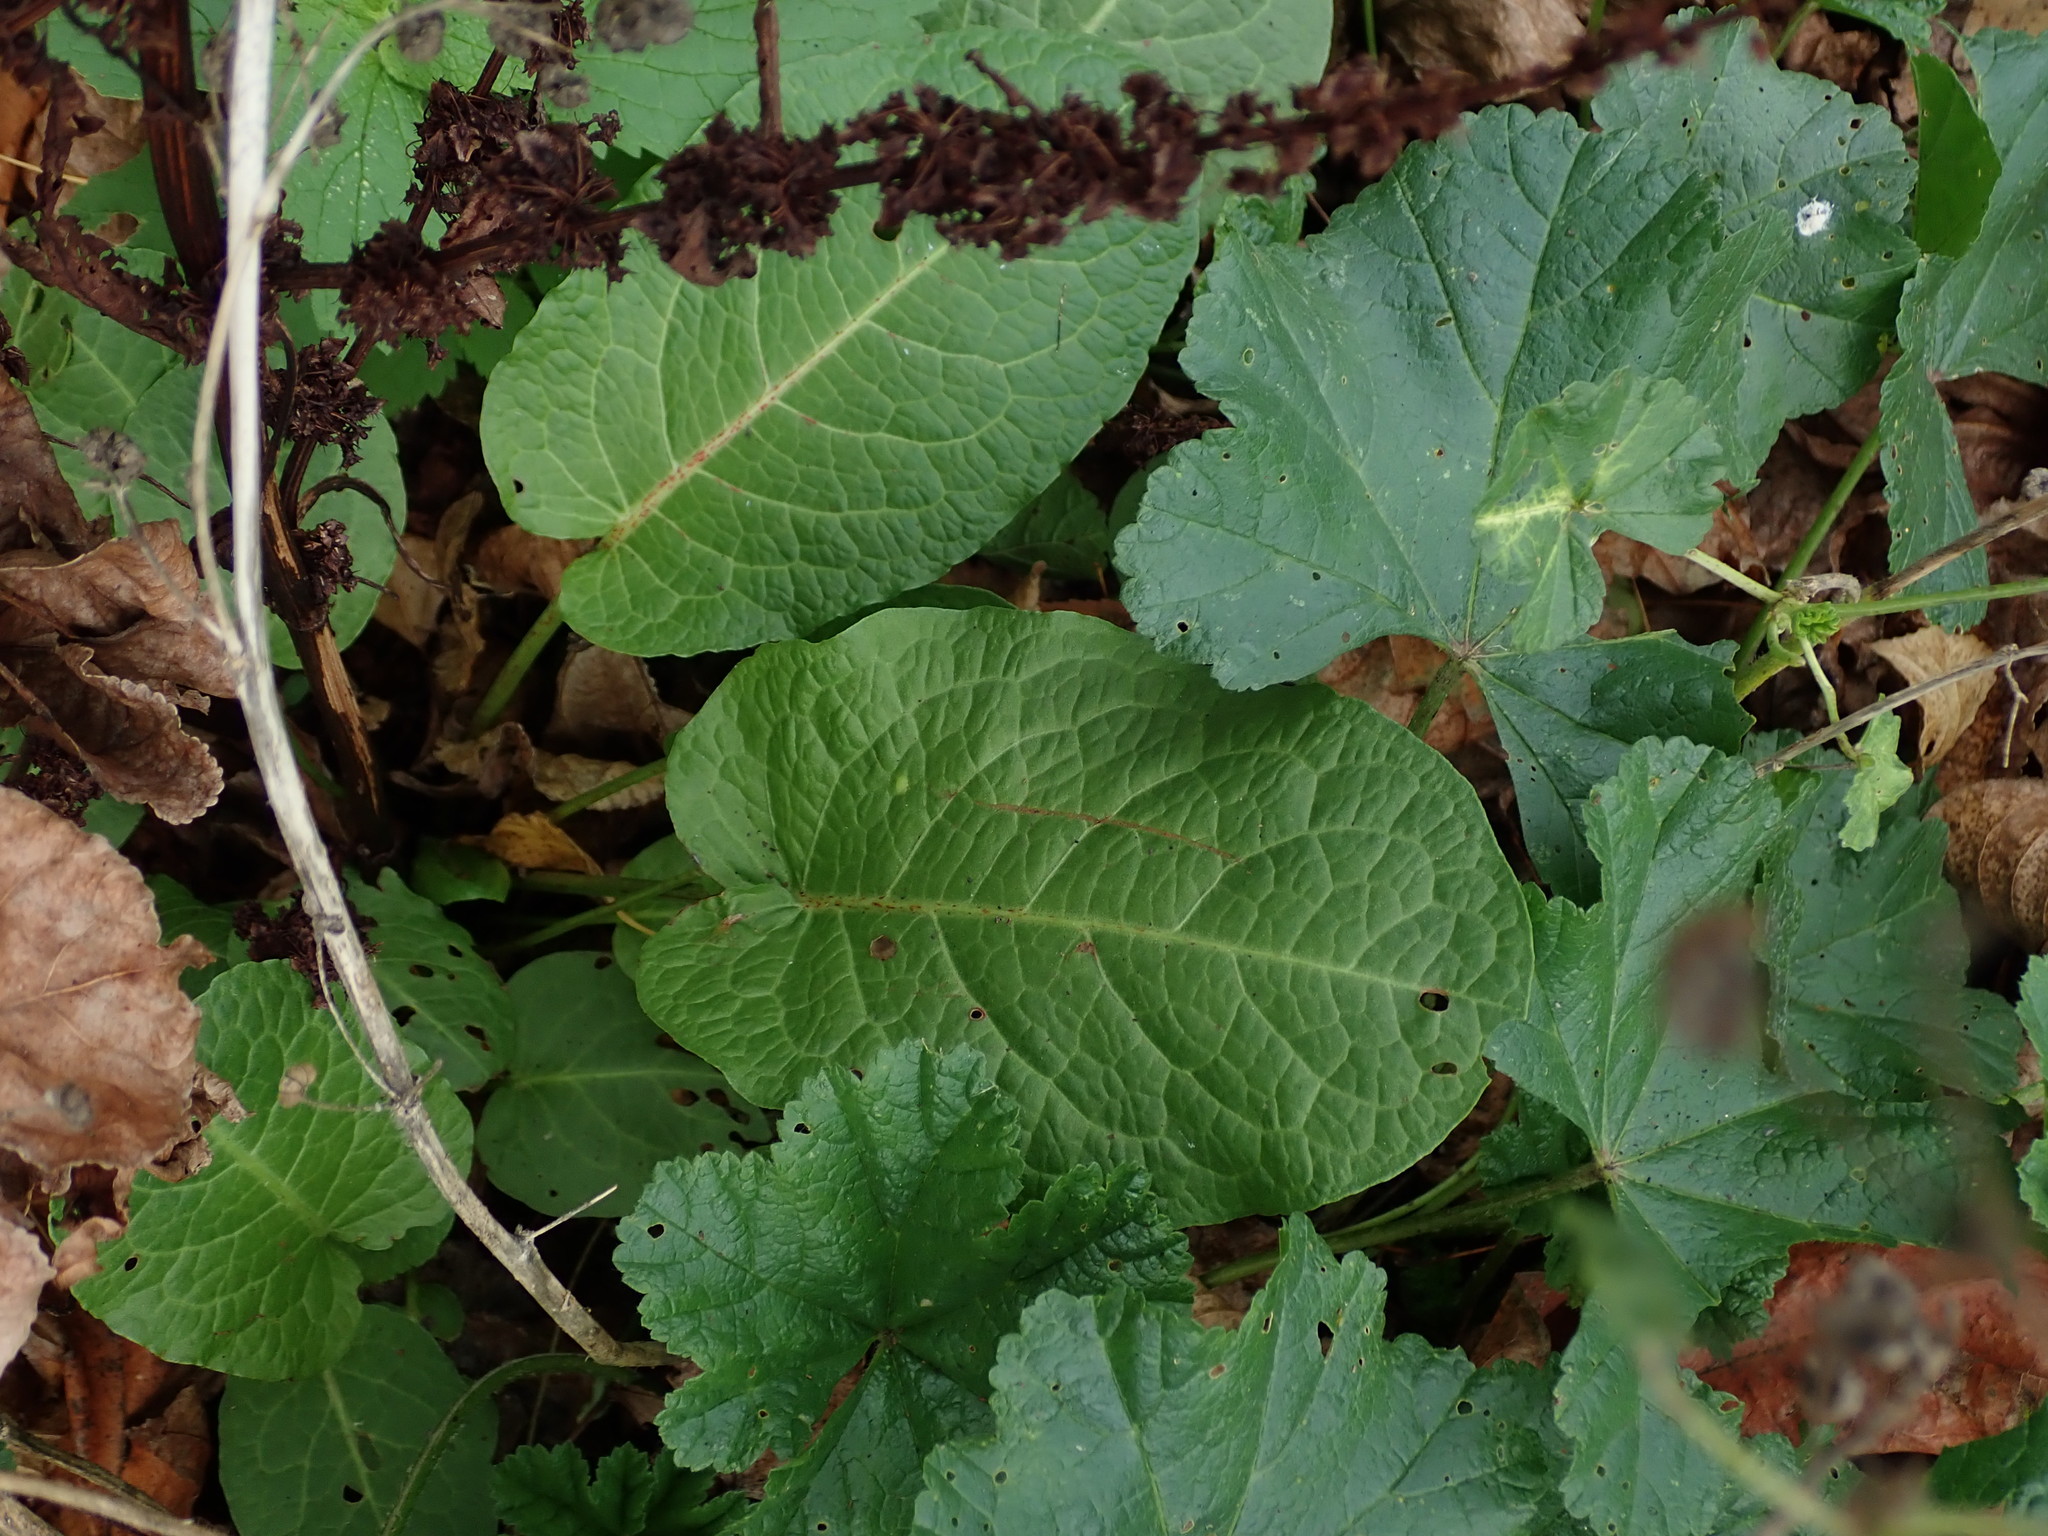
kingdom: Plantae
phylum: Tracheophyta
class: Magnoliopsida
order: Caryophyllales
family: Polygonaceae
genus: Rumex
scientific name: Rumex obtusifolius
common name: Bitter dock
